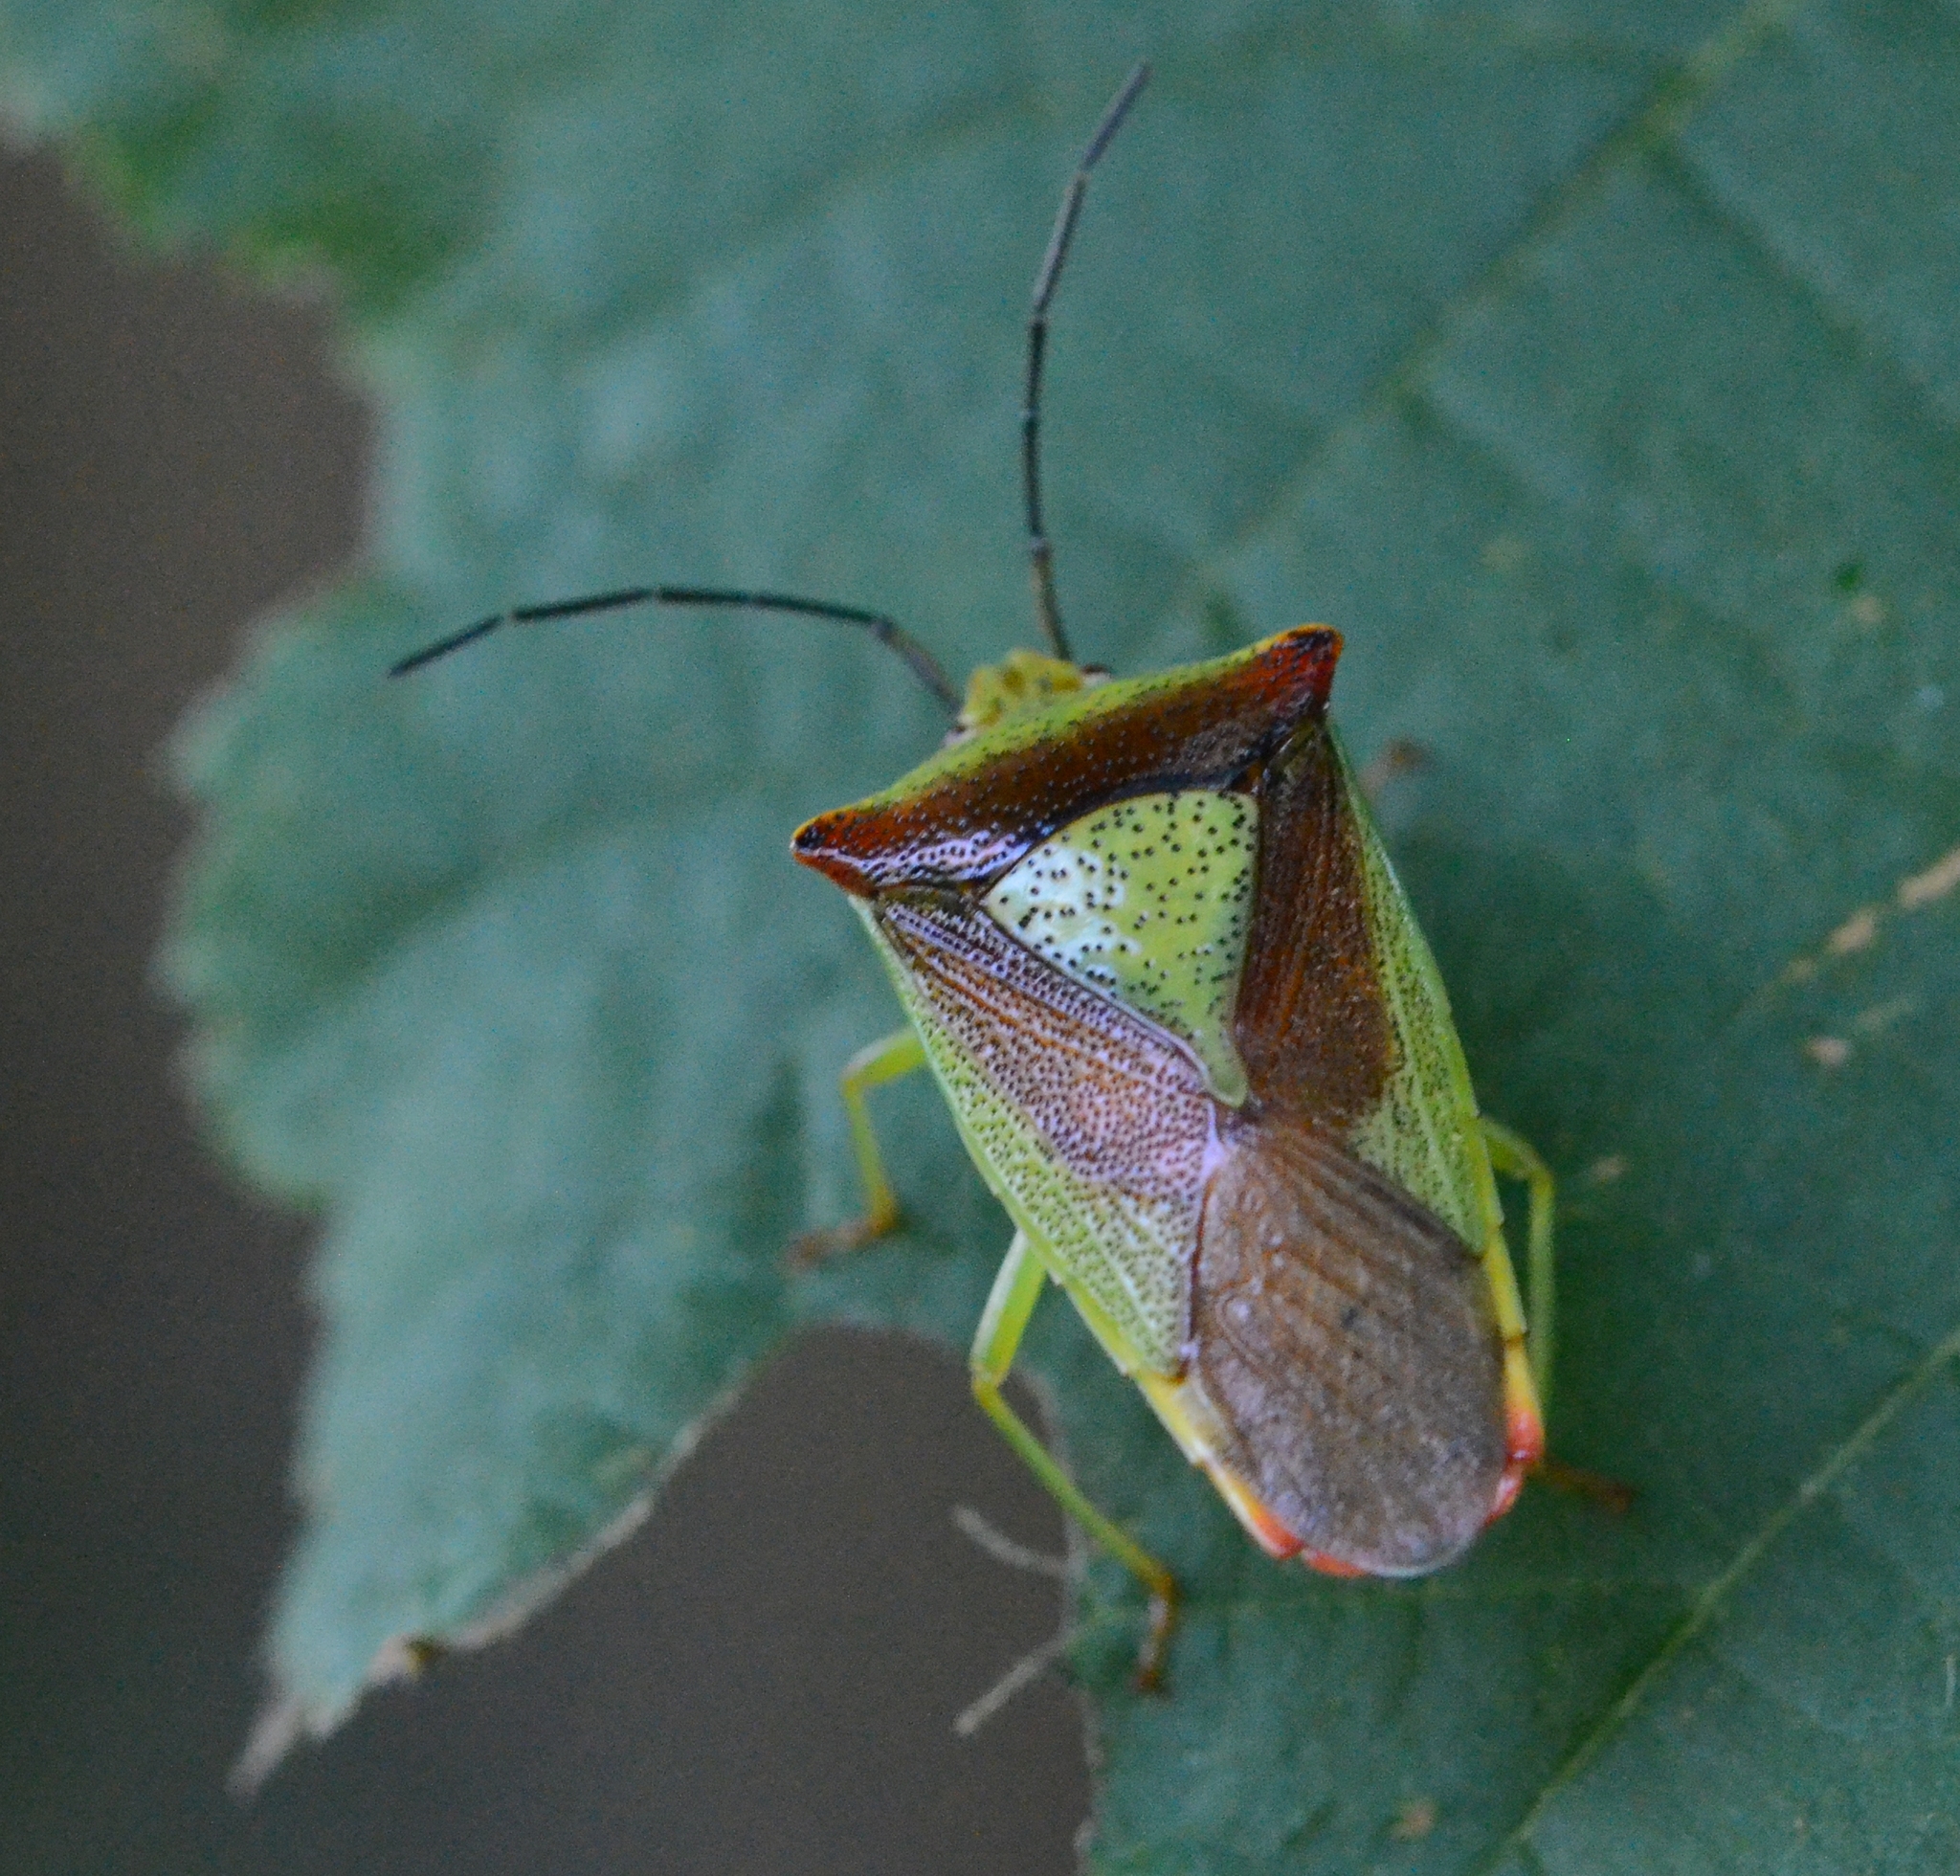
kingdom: Animalia
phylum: Arthropoda
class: Insecta
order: Hemiptera
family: Acanthosomatidae
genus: Acanthosoma
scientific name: Acanthosoma haemorrhoidale
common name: Hawthorn shieldbug
